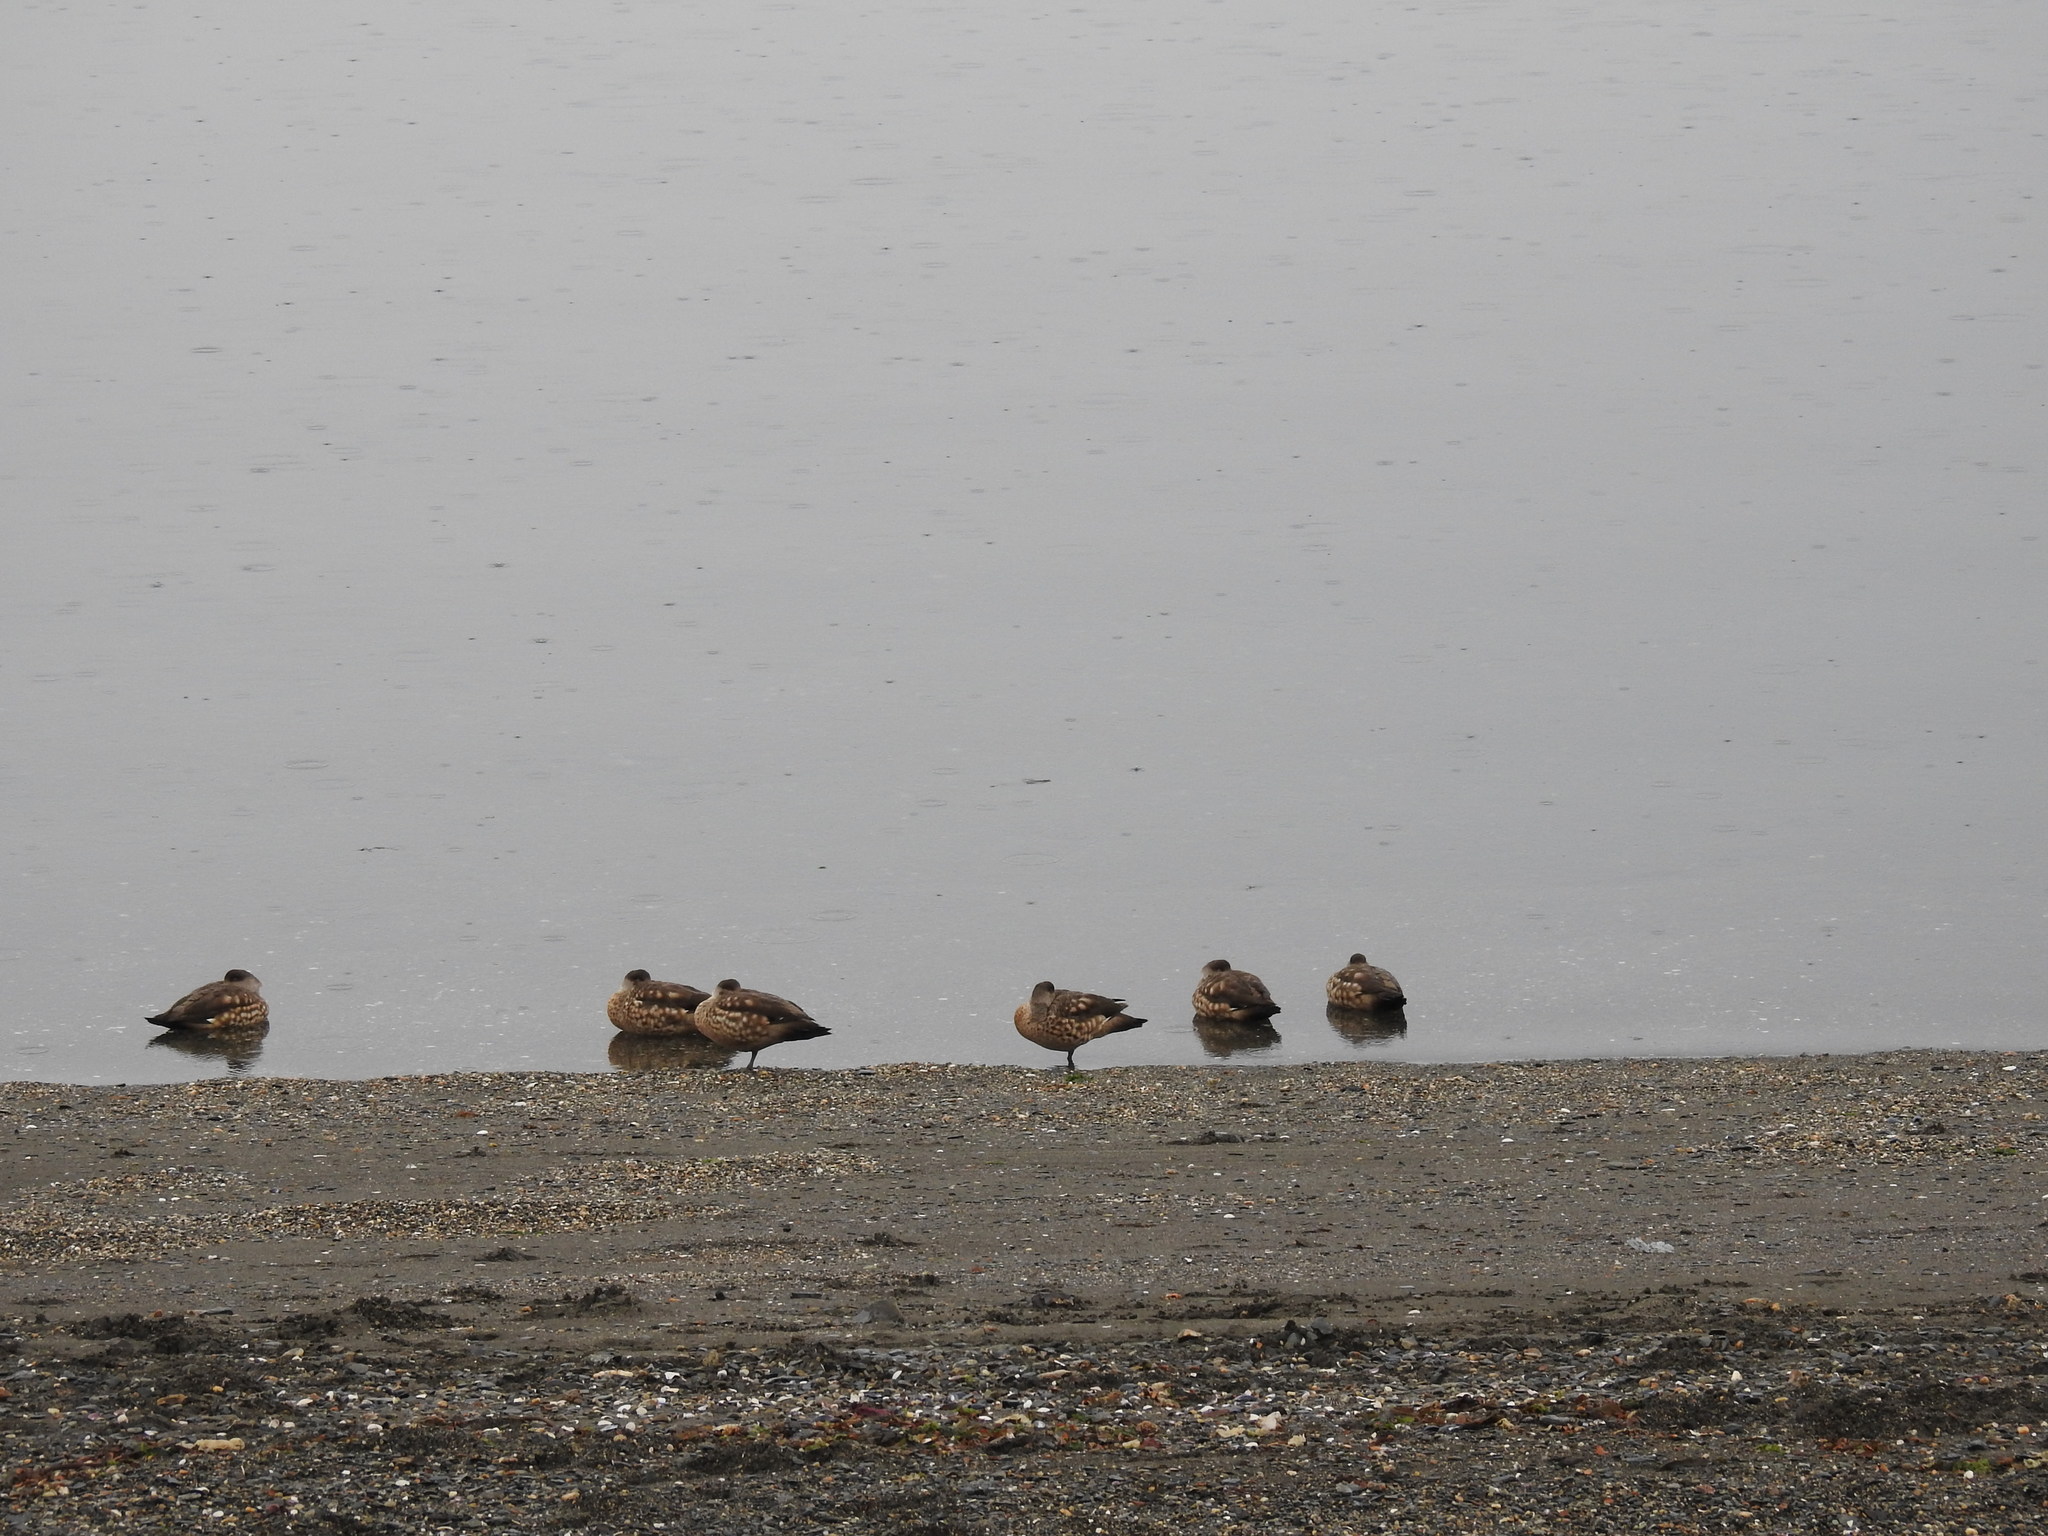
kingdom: Animalia
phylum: Chordata
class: Aves
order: Anseriformes
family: Anatidae
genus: Lophonetta
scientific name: Lophonetta specularioides
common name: Crested duck
